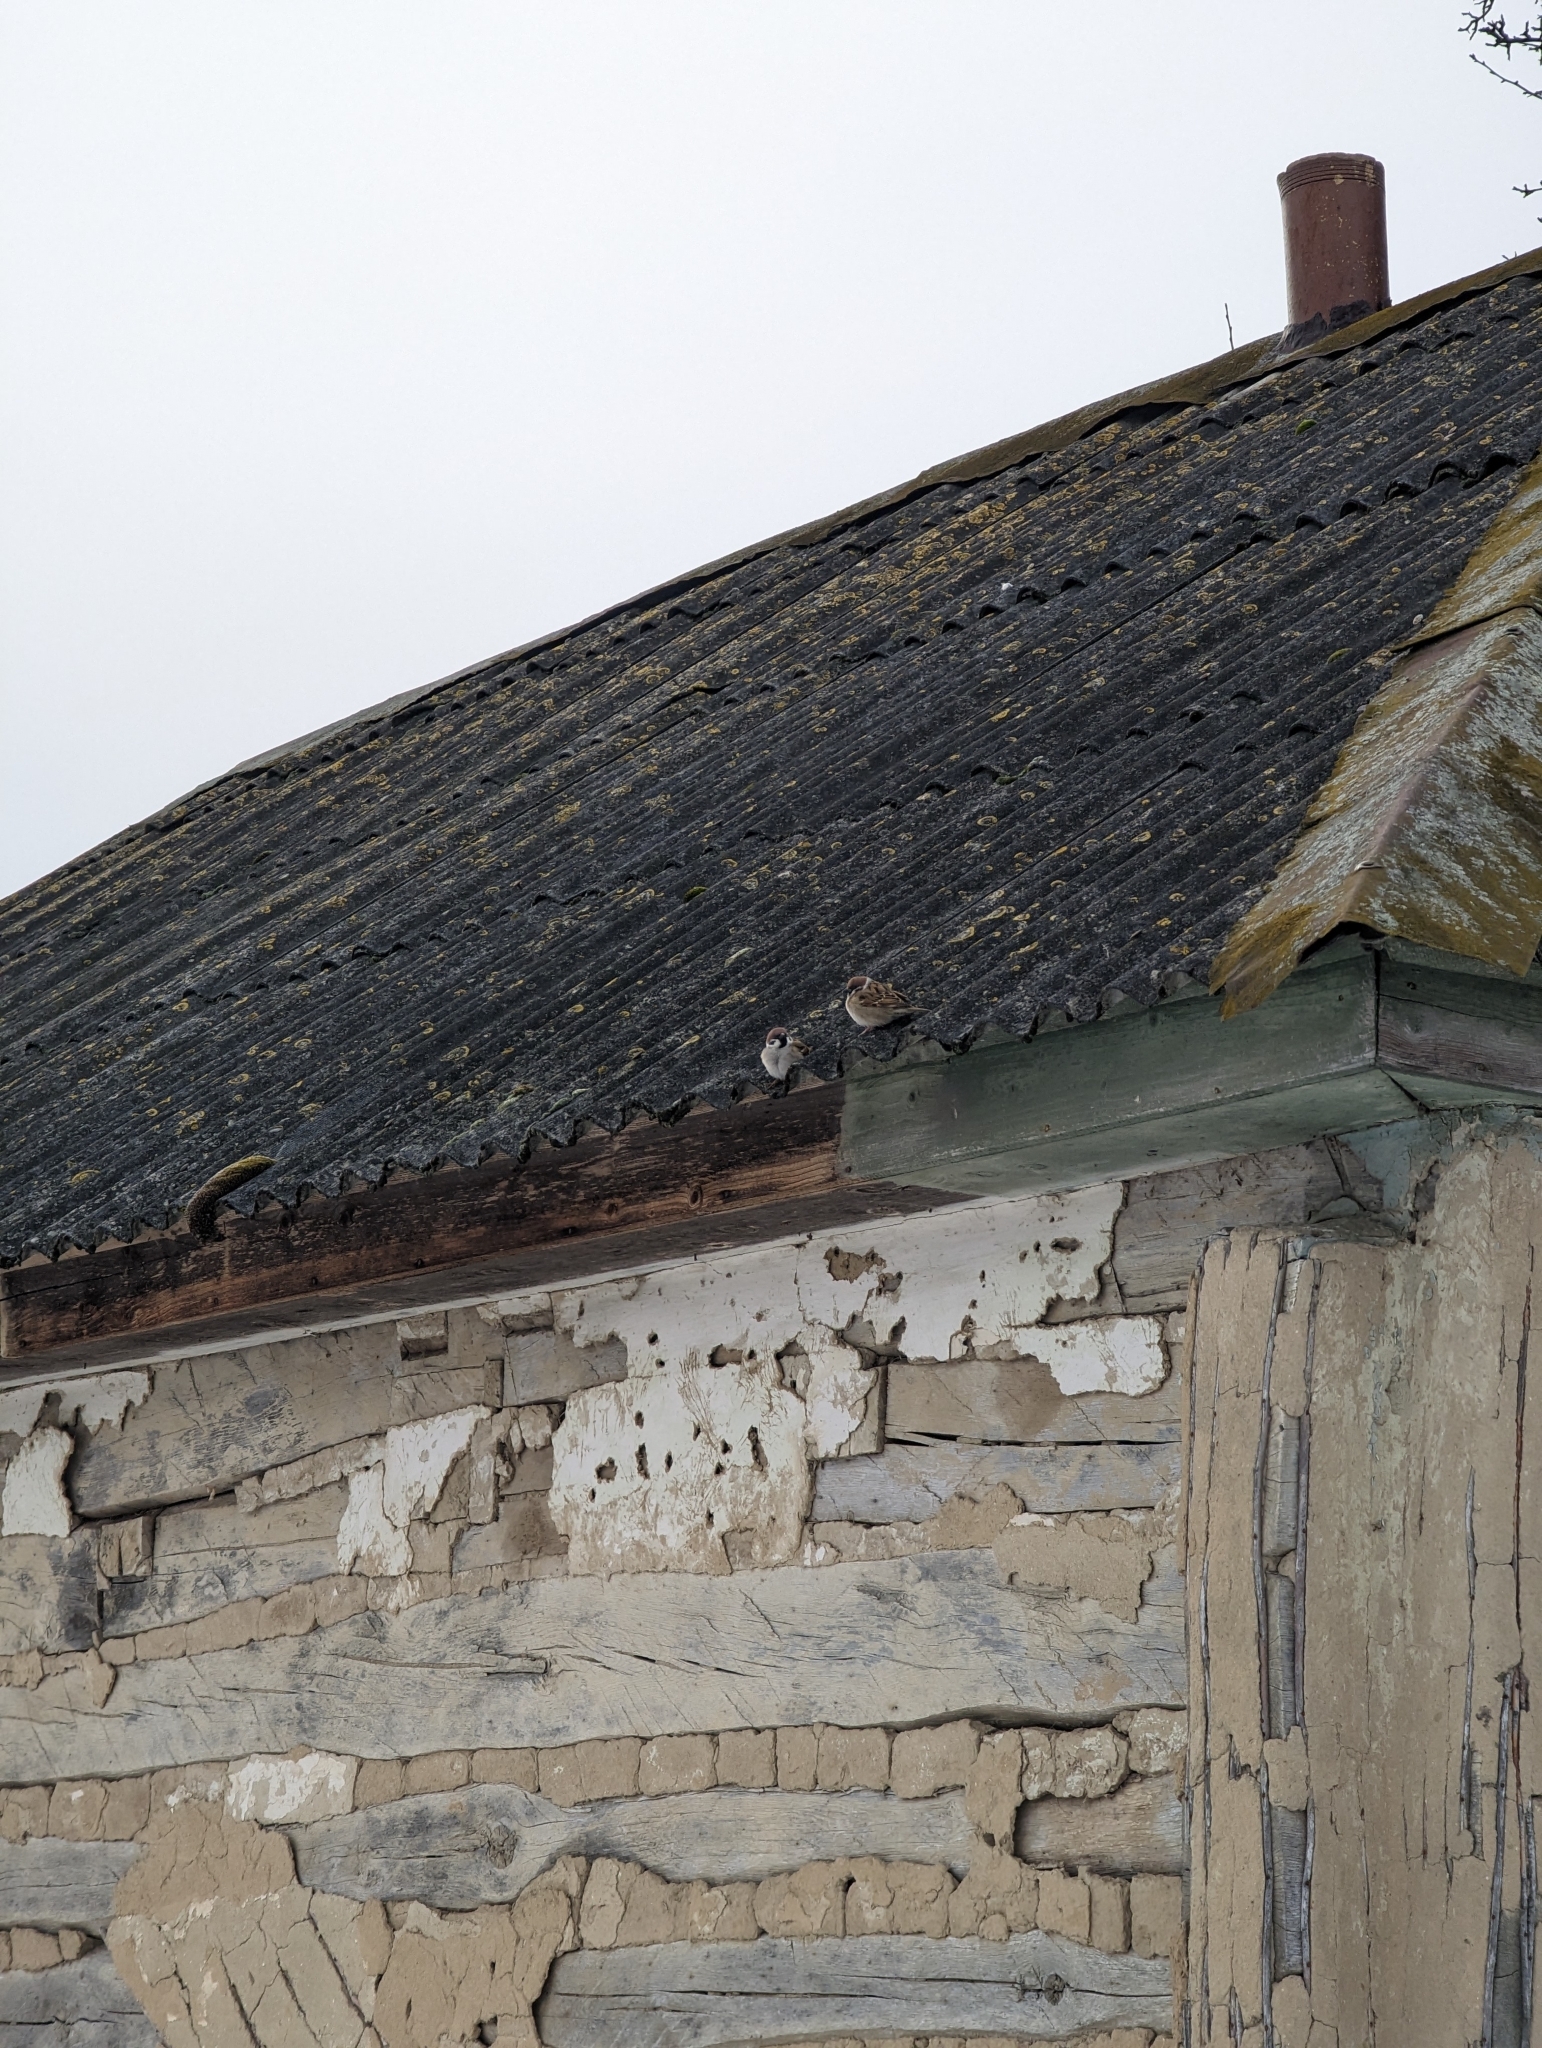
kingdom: Animalia
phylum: Chordata
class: Aves
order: Passeriformes
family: Passeridae
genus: Passer
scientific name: Passer montanus
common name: Eurasian tree sparrow
